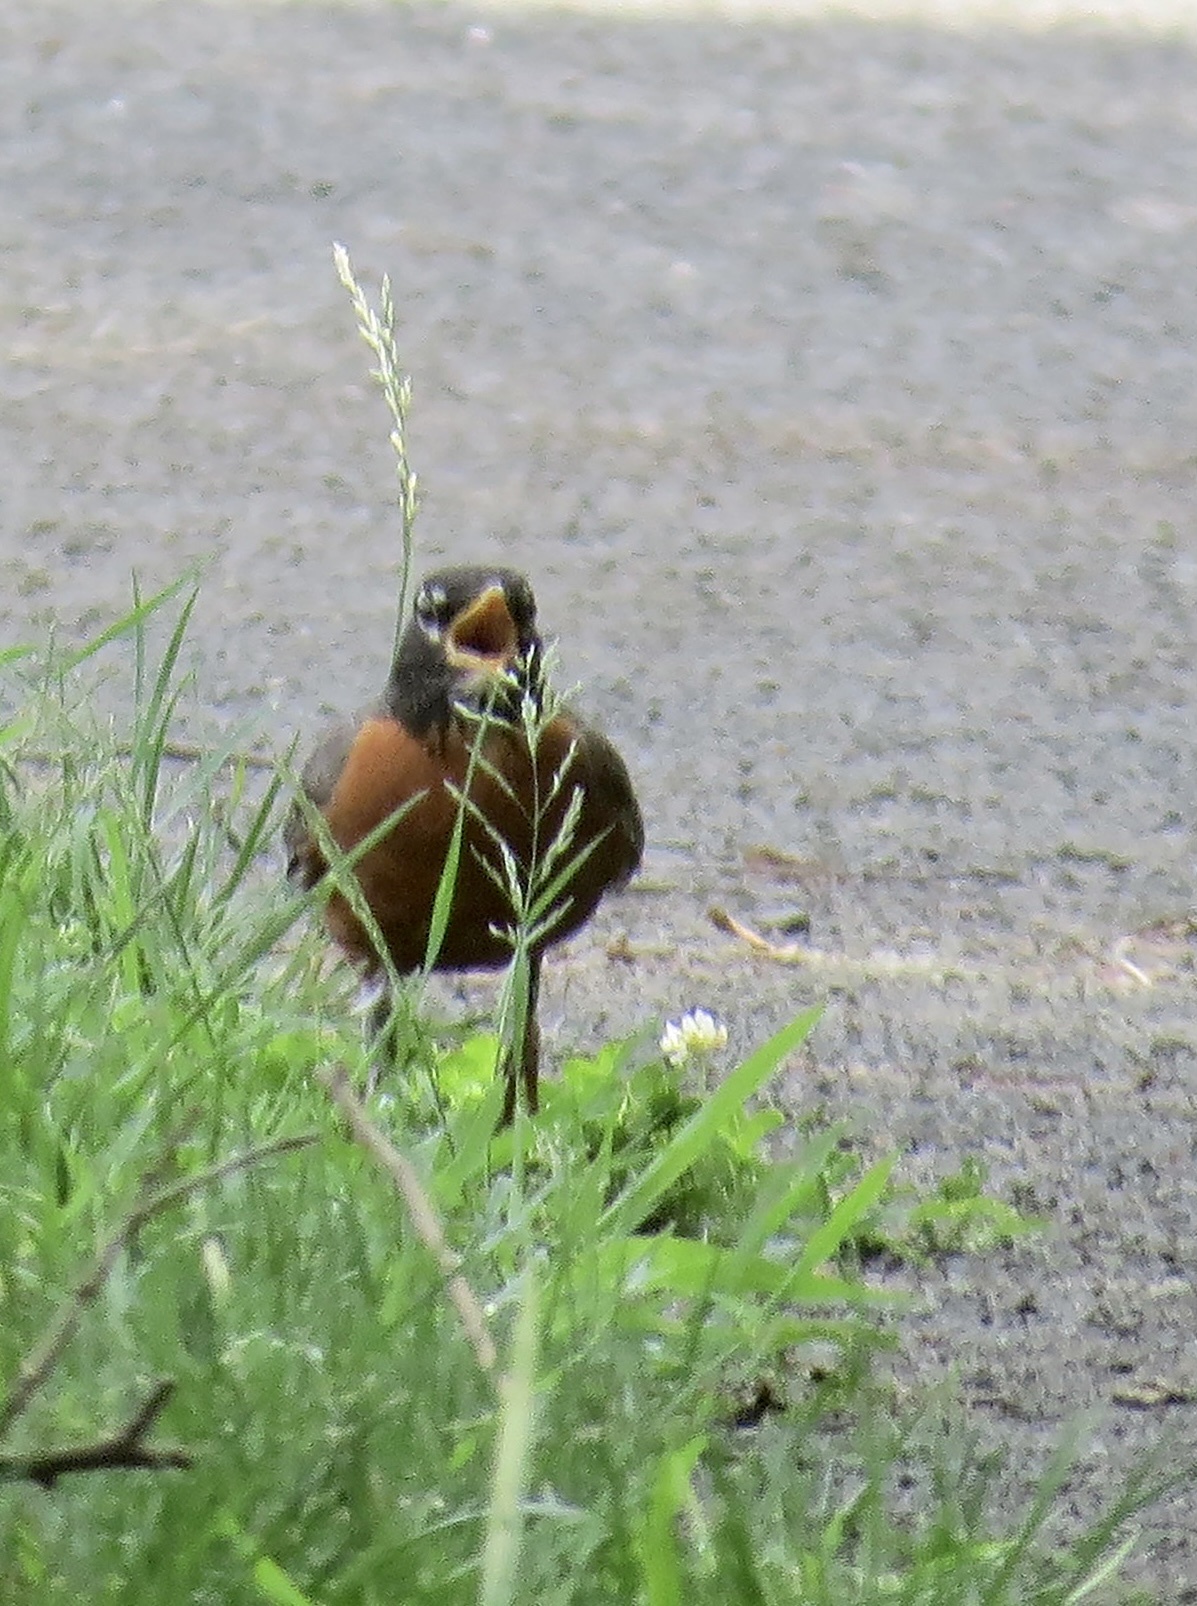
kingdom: Animalia
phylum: Chordata
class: Aves
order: Passeriformes
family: Turdidae
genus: Turdus
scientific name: Turdus migratorius
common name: American robin
